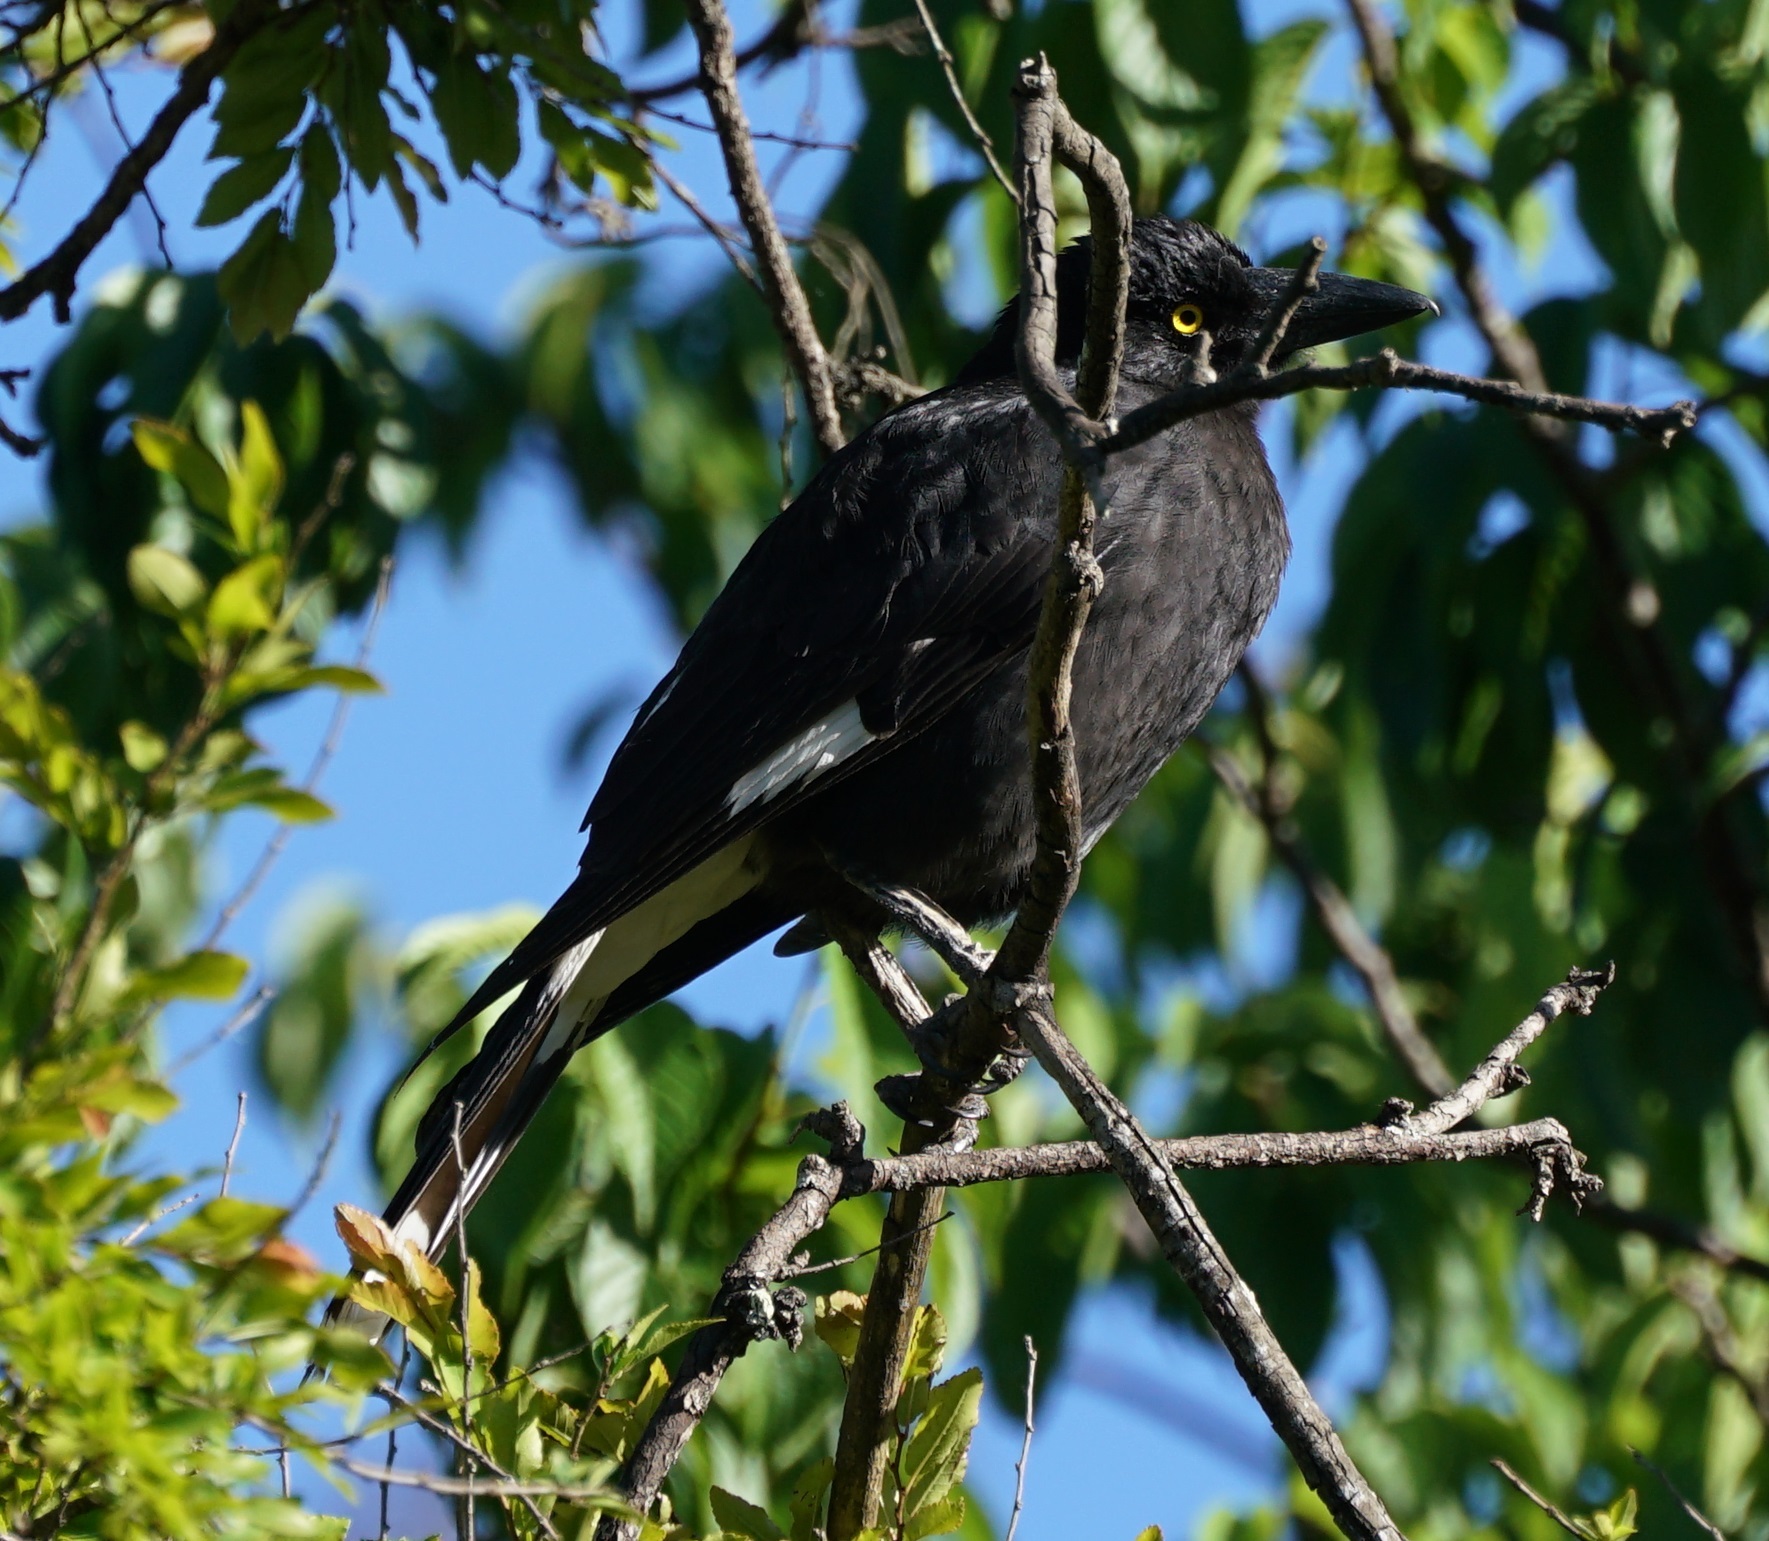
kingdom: Animalia
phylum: Chordata
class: Aves
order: Passeriformes
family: Cracticidae
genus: Strepera
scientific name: Strepera graculina
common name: Pied currawong
